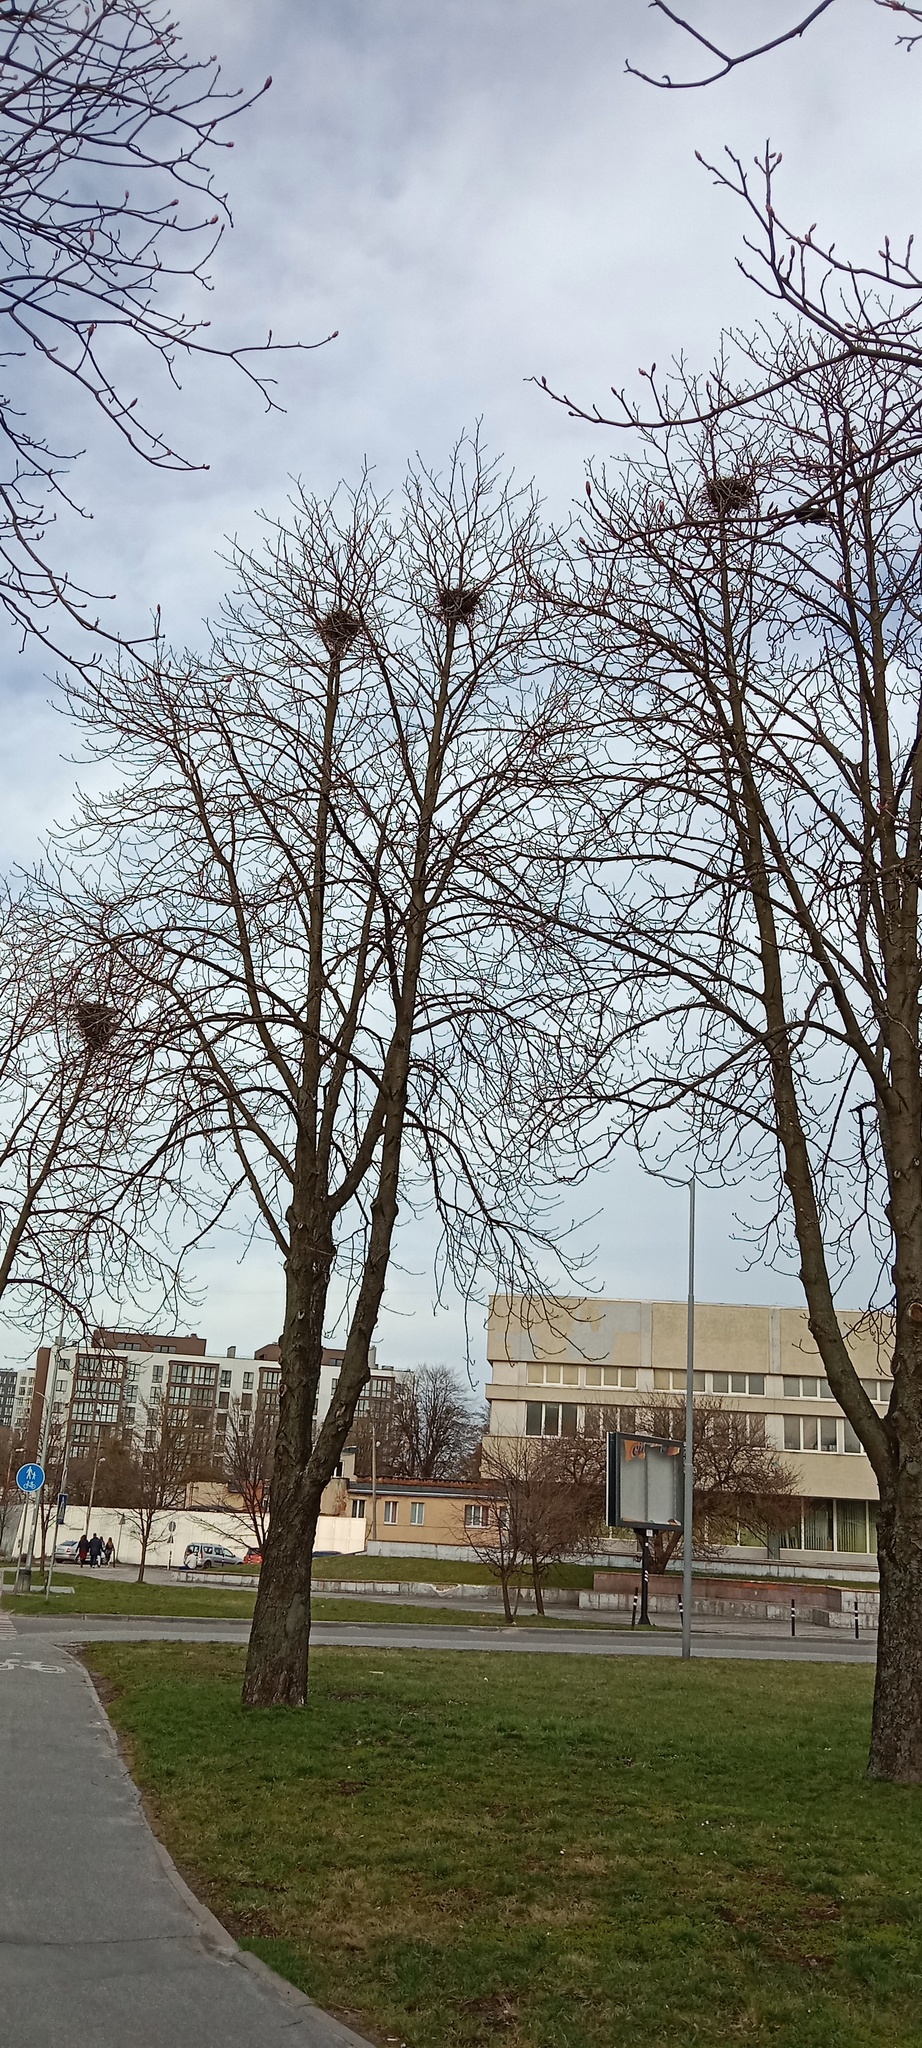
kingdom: Animalia
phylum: Chordata
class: Aves
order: Passeriformes
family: Corvidae
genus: Corvus
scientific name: Corvus frugilegus
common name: Rook
